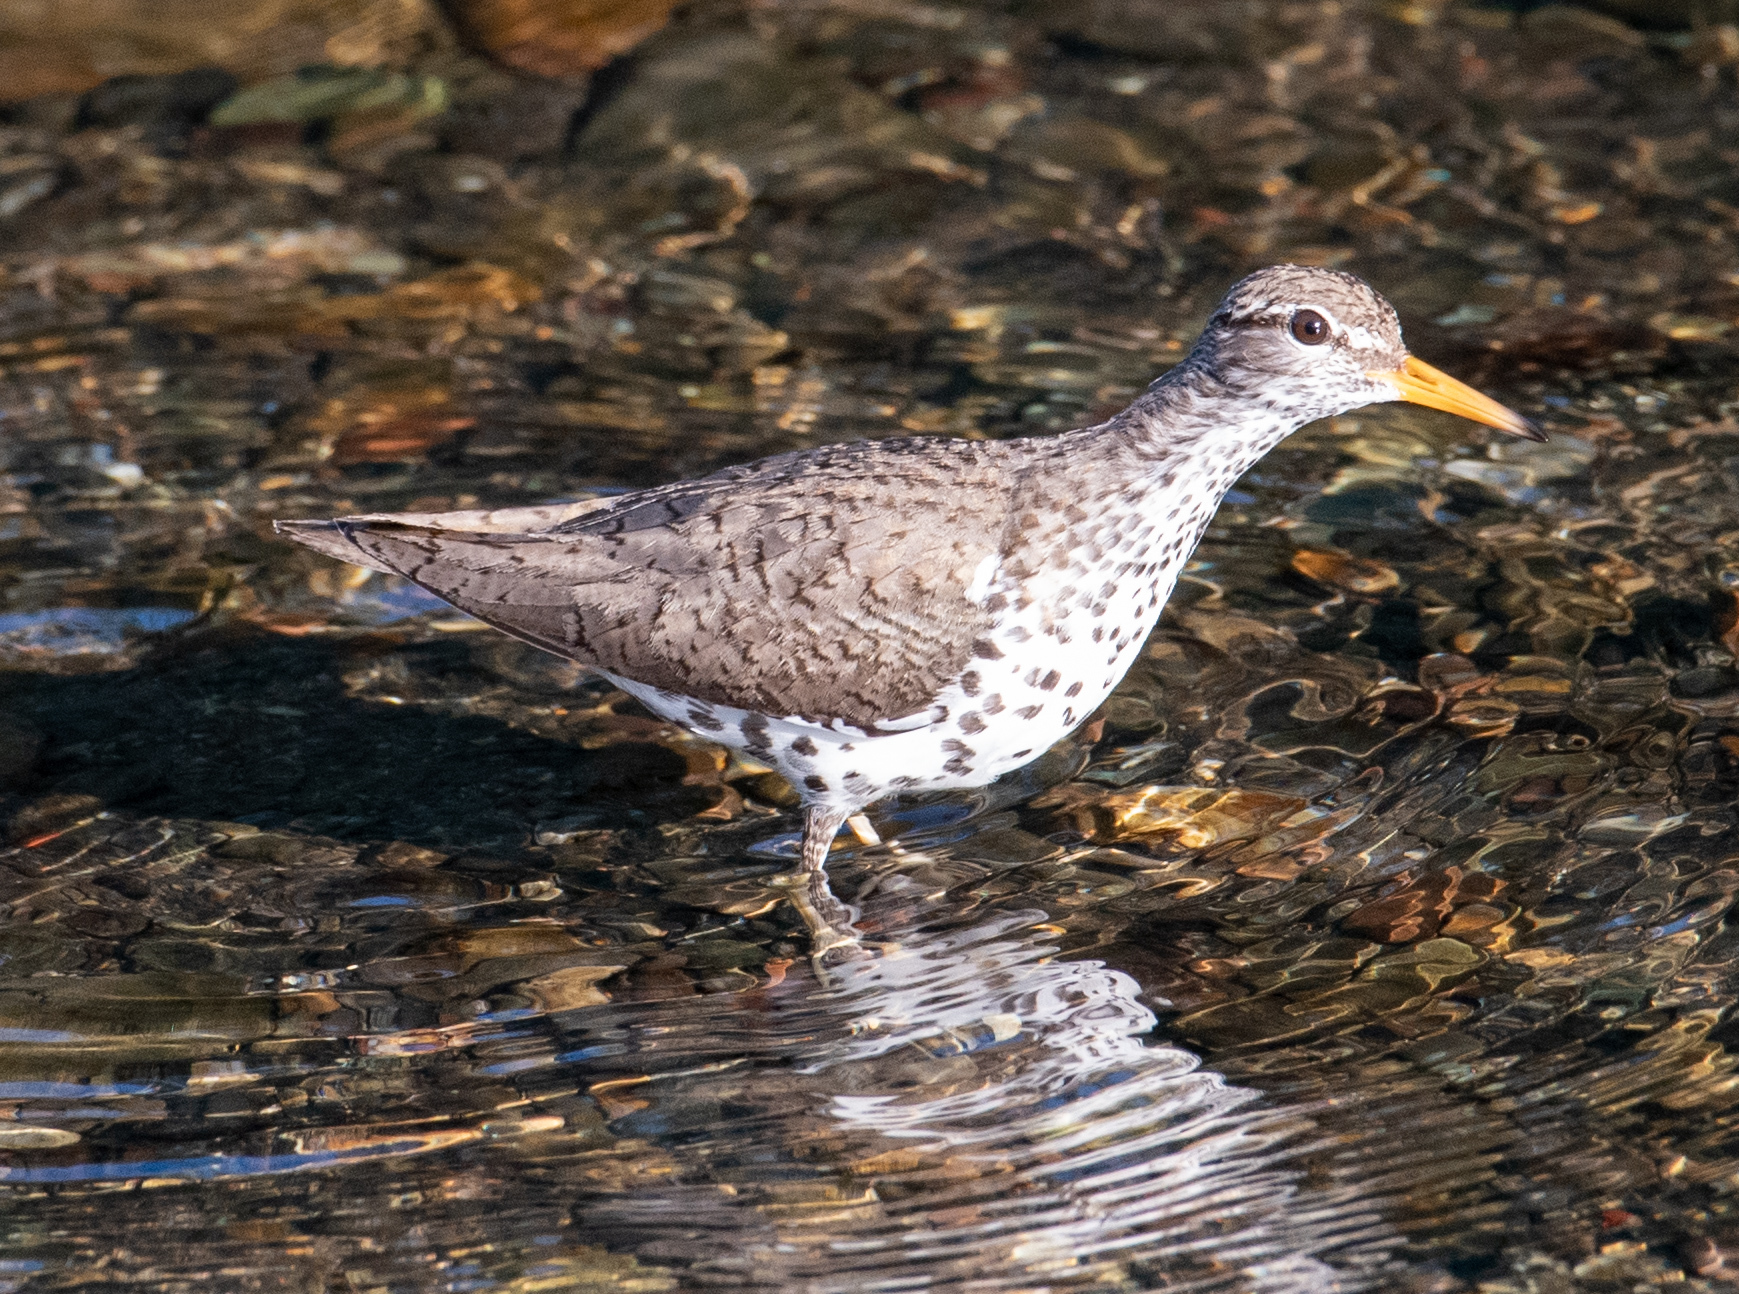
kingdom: Animalia
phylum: Chordata
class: Aves
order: Charadriiformes
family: Scolopacidae
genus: Actitis
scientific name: Actitis macularius
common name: Spotted sandpiper
